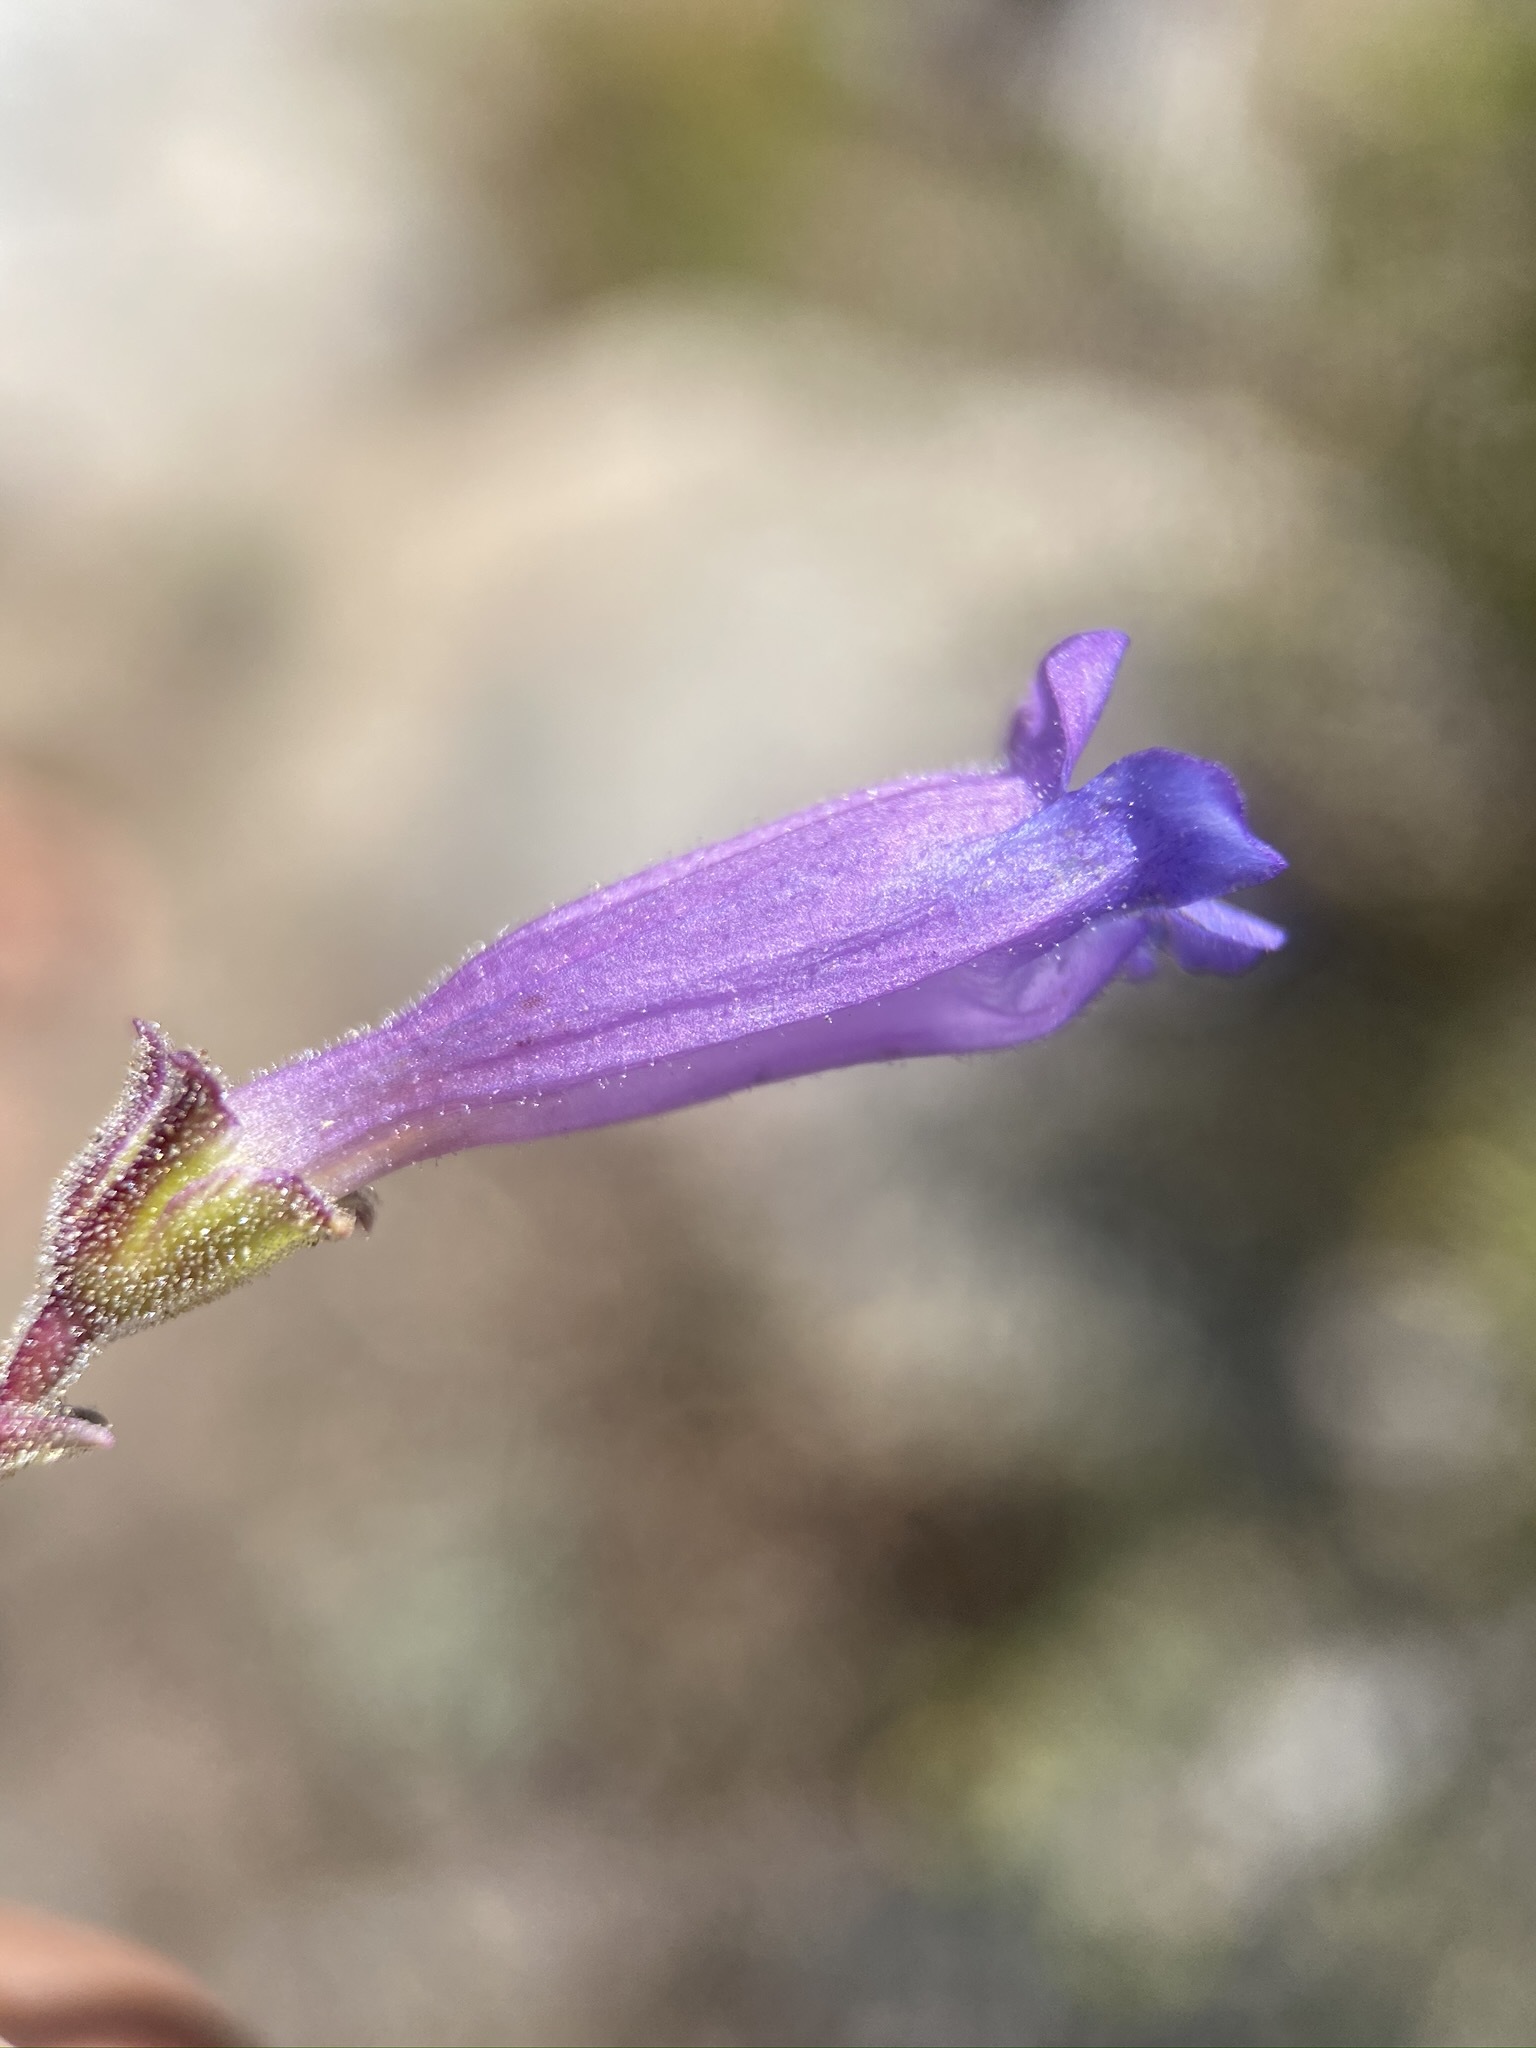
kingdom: Plantae
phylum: Tracheophyta
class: Magnoliopsida
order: Lamiales
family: Plantaginaceae
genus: Penstemon
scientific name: Penstemon caesius
